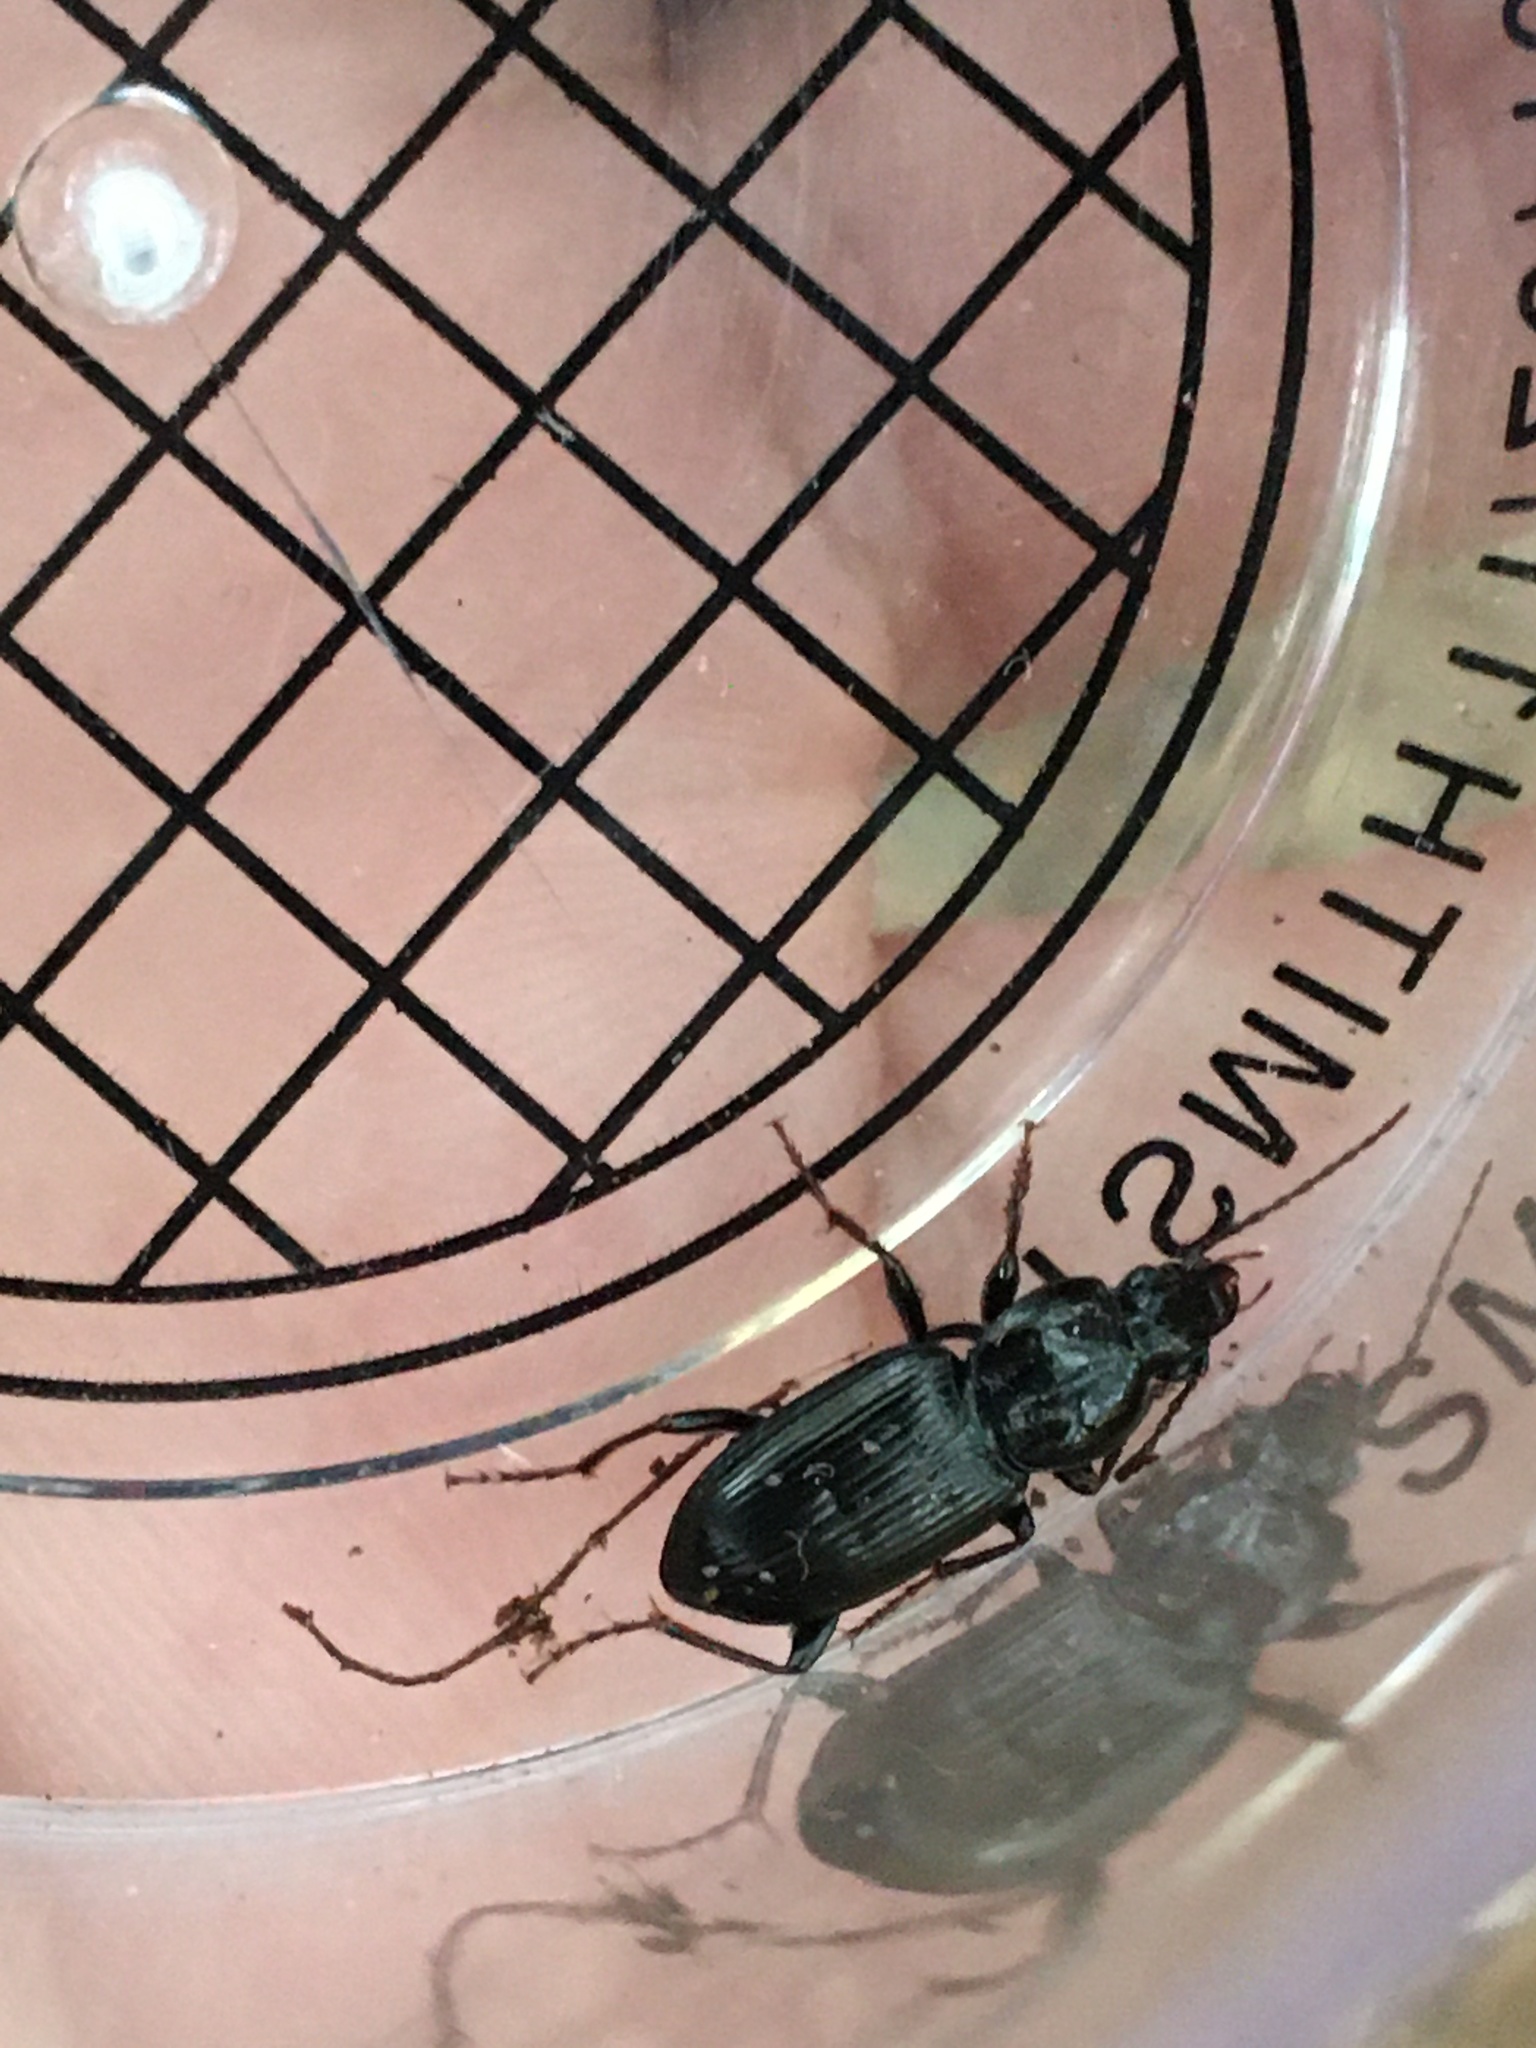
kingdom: Animalia
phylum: Arthropoda
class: Insecta
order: Coleoptera
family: Carabidae
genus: Pterostichus
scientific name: Pterostichus
